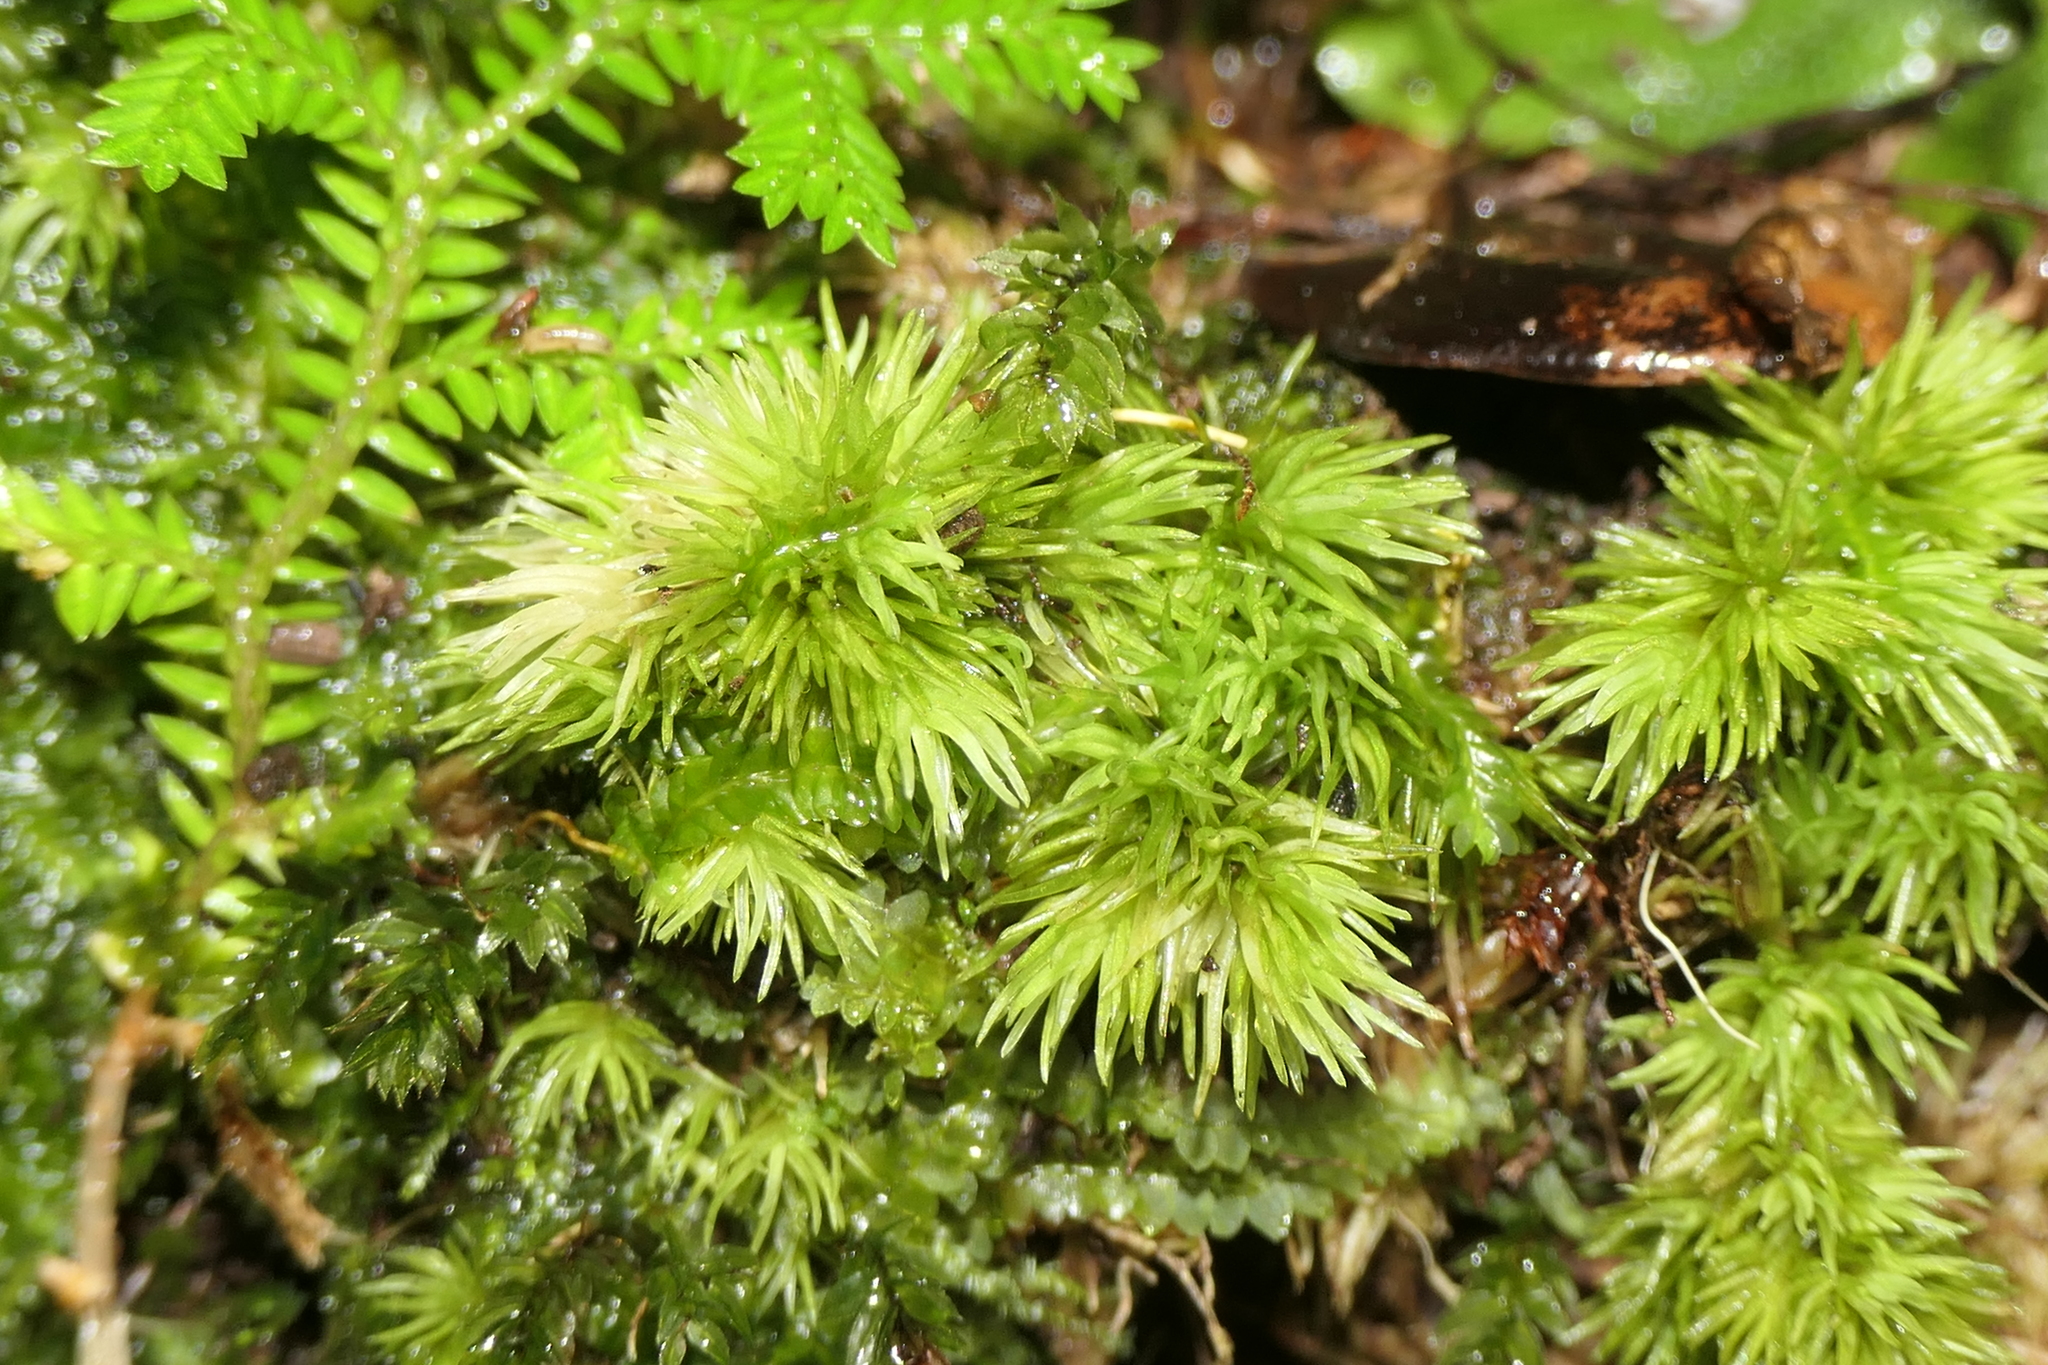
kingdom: Plantae
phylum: Bryophyta
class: Bryopsida
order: Dicranales
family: Leucobryaceae
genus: Leucobryum
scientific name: Leucobryum juniperoideum
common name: Smaller white-moss
